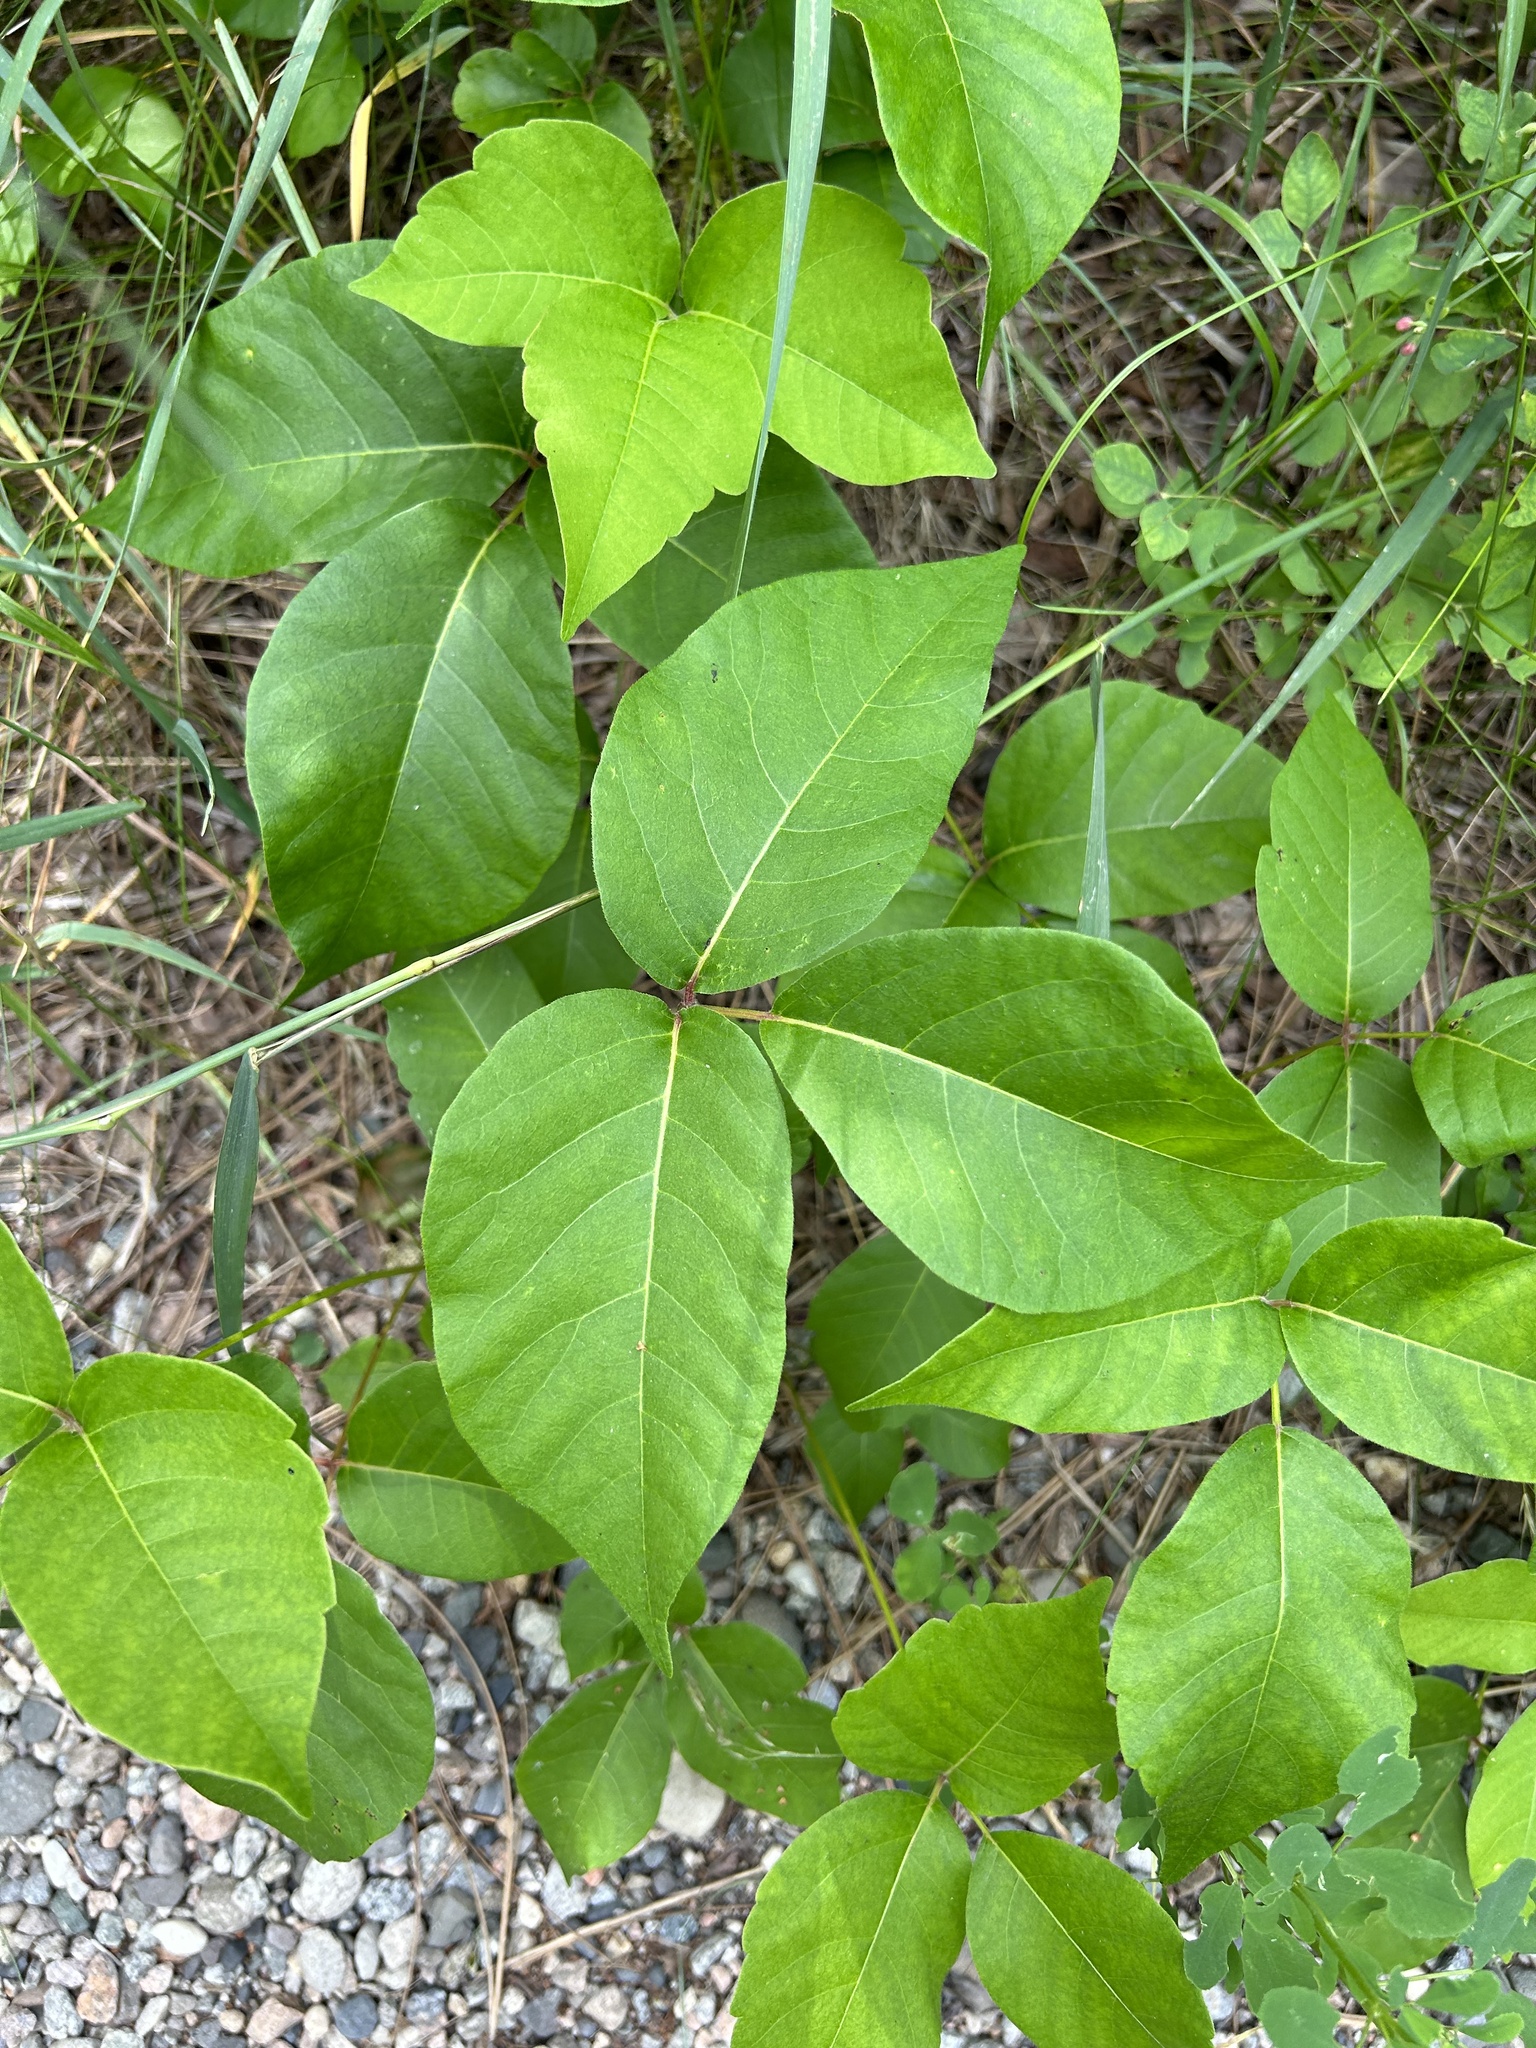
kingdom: Plantae
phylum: Tracheophyta
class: Magnoliopsida
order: Sapindales
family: Anacardiaceae
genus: Toxicodendron
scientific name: Toxicodendron rydbergii
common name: Rydberg's poison-ivy
